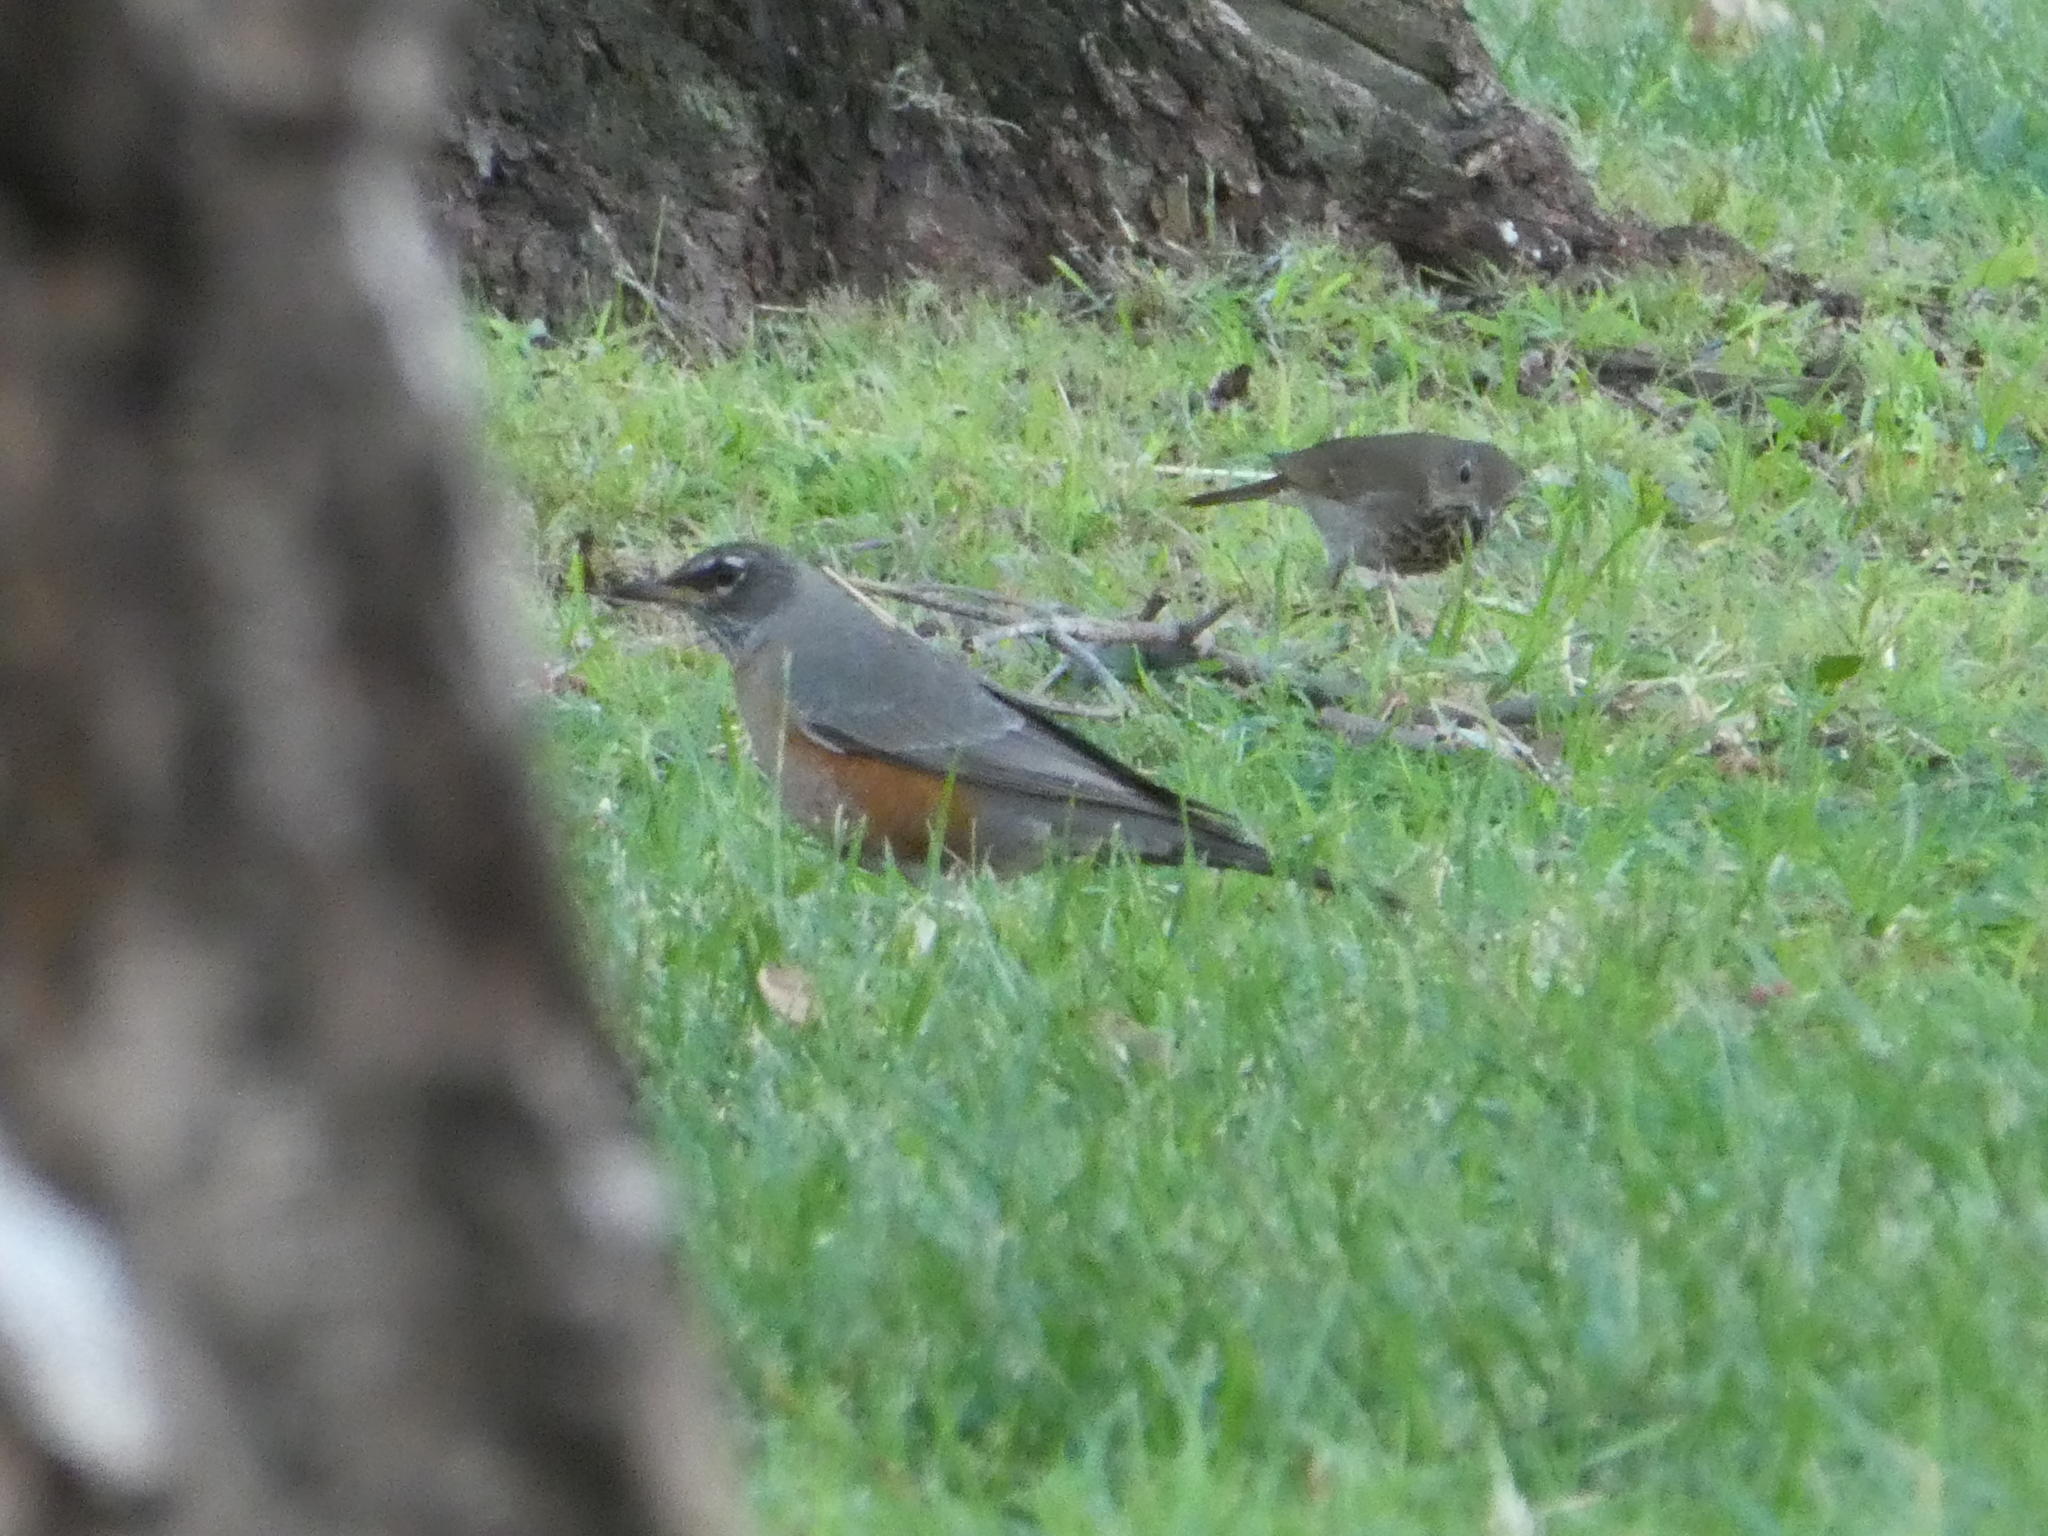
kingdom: Animalia
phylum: Chordata
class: Aves
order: Passeriformes
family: Turdidae
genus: Turdus
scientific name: Turdus migratorius
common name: American robin
